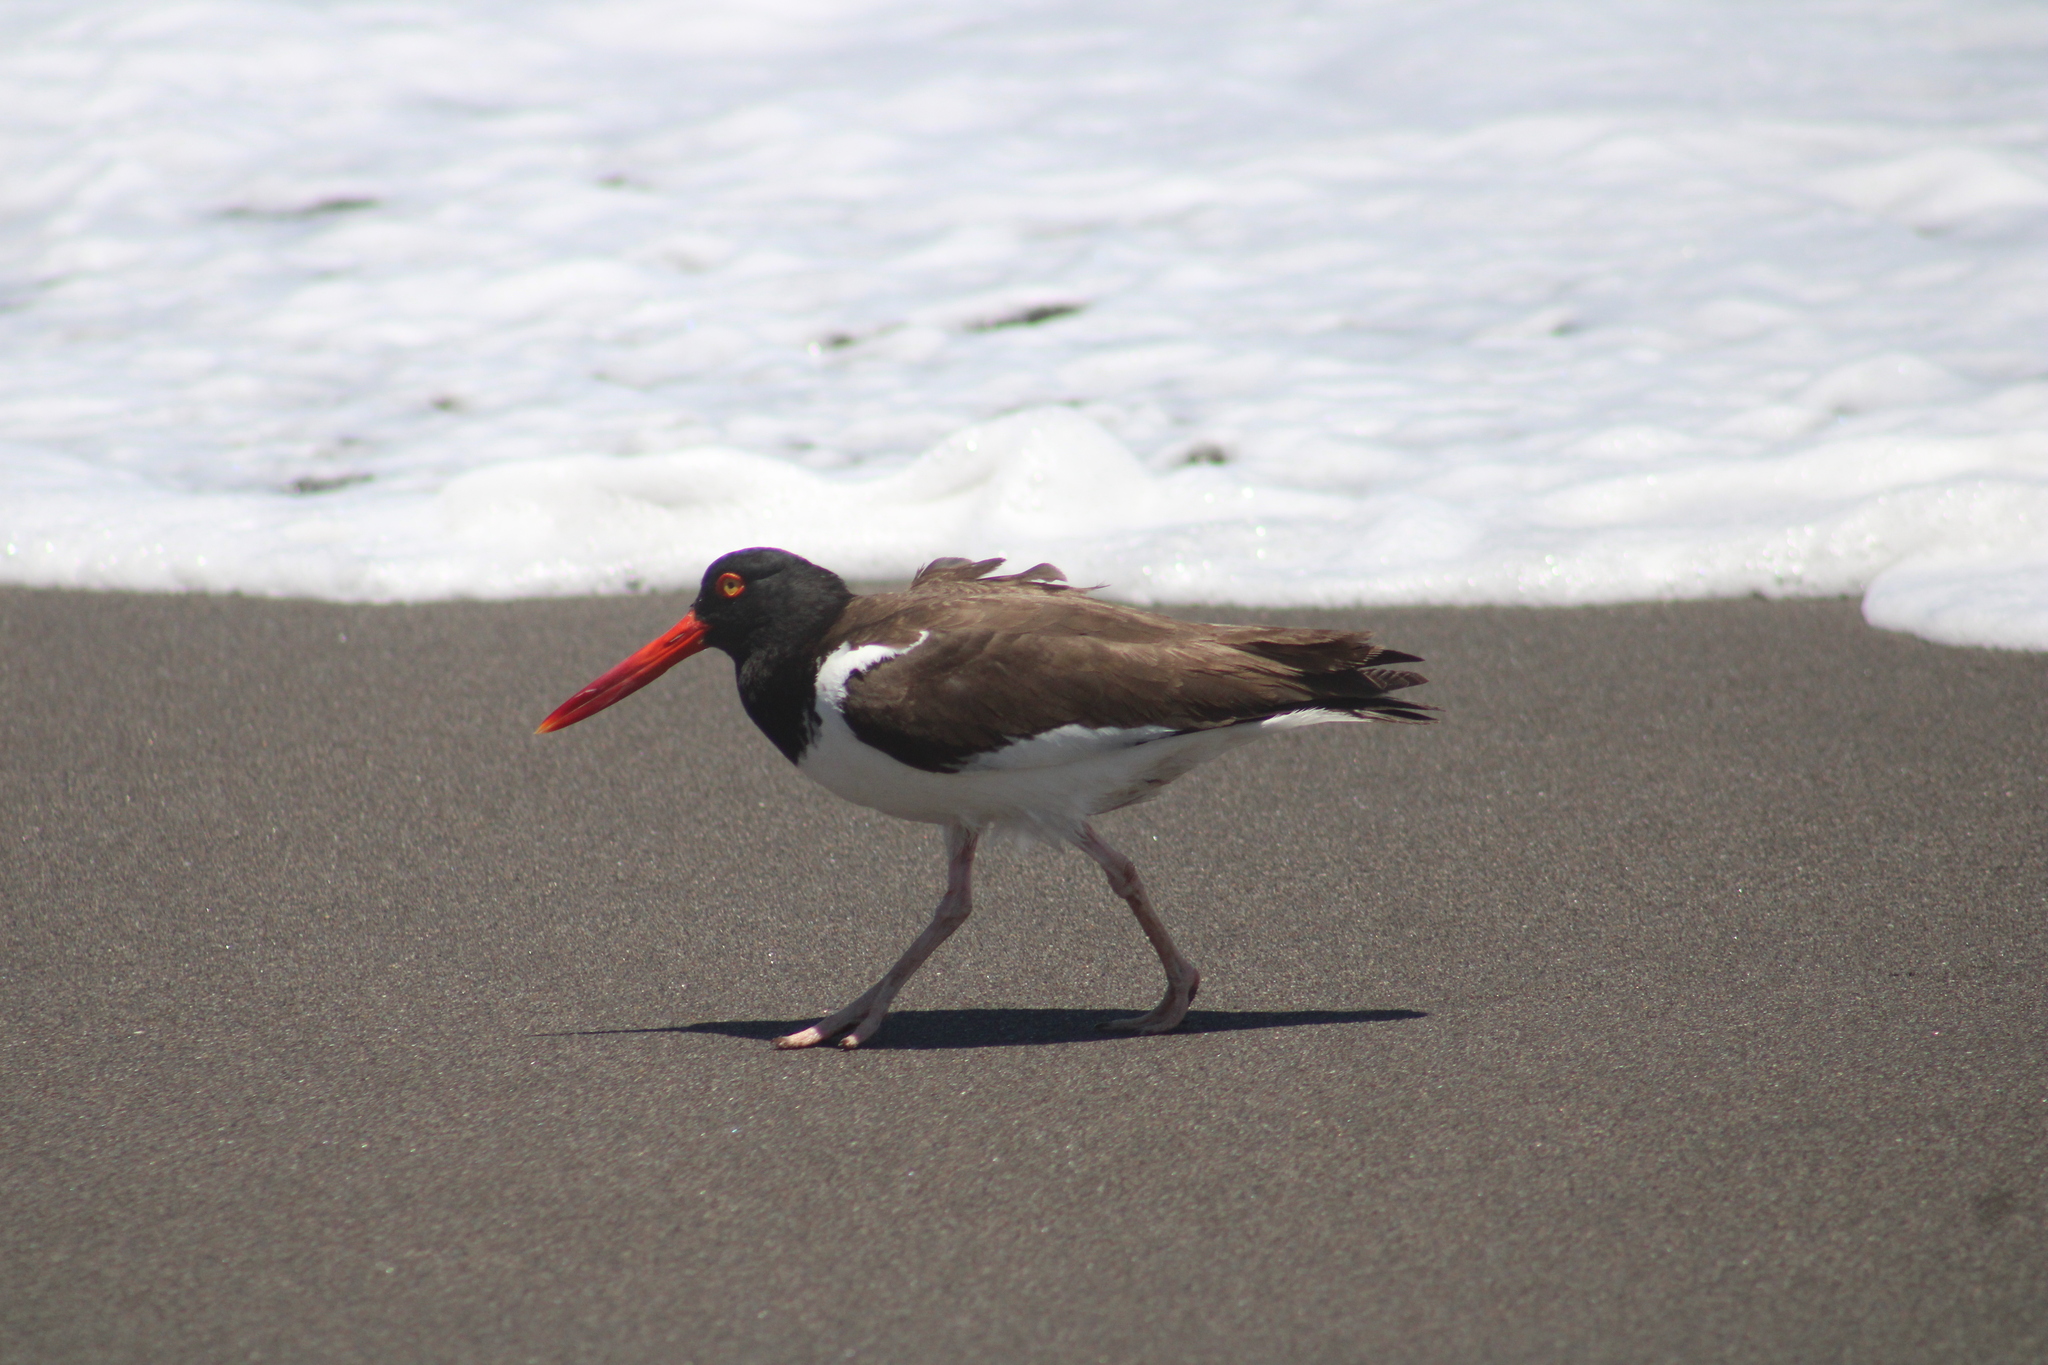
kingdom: Animalia
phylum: Chordata
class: Aves
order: Charadriiformes
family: Haematopodidae
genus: Haematopus
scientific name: Haematopus palliatus
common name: American oystercatcher
